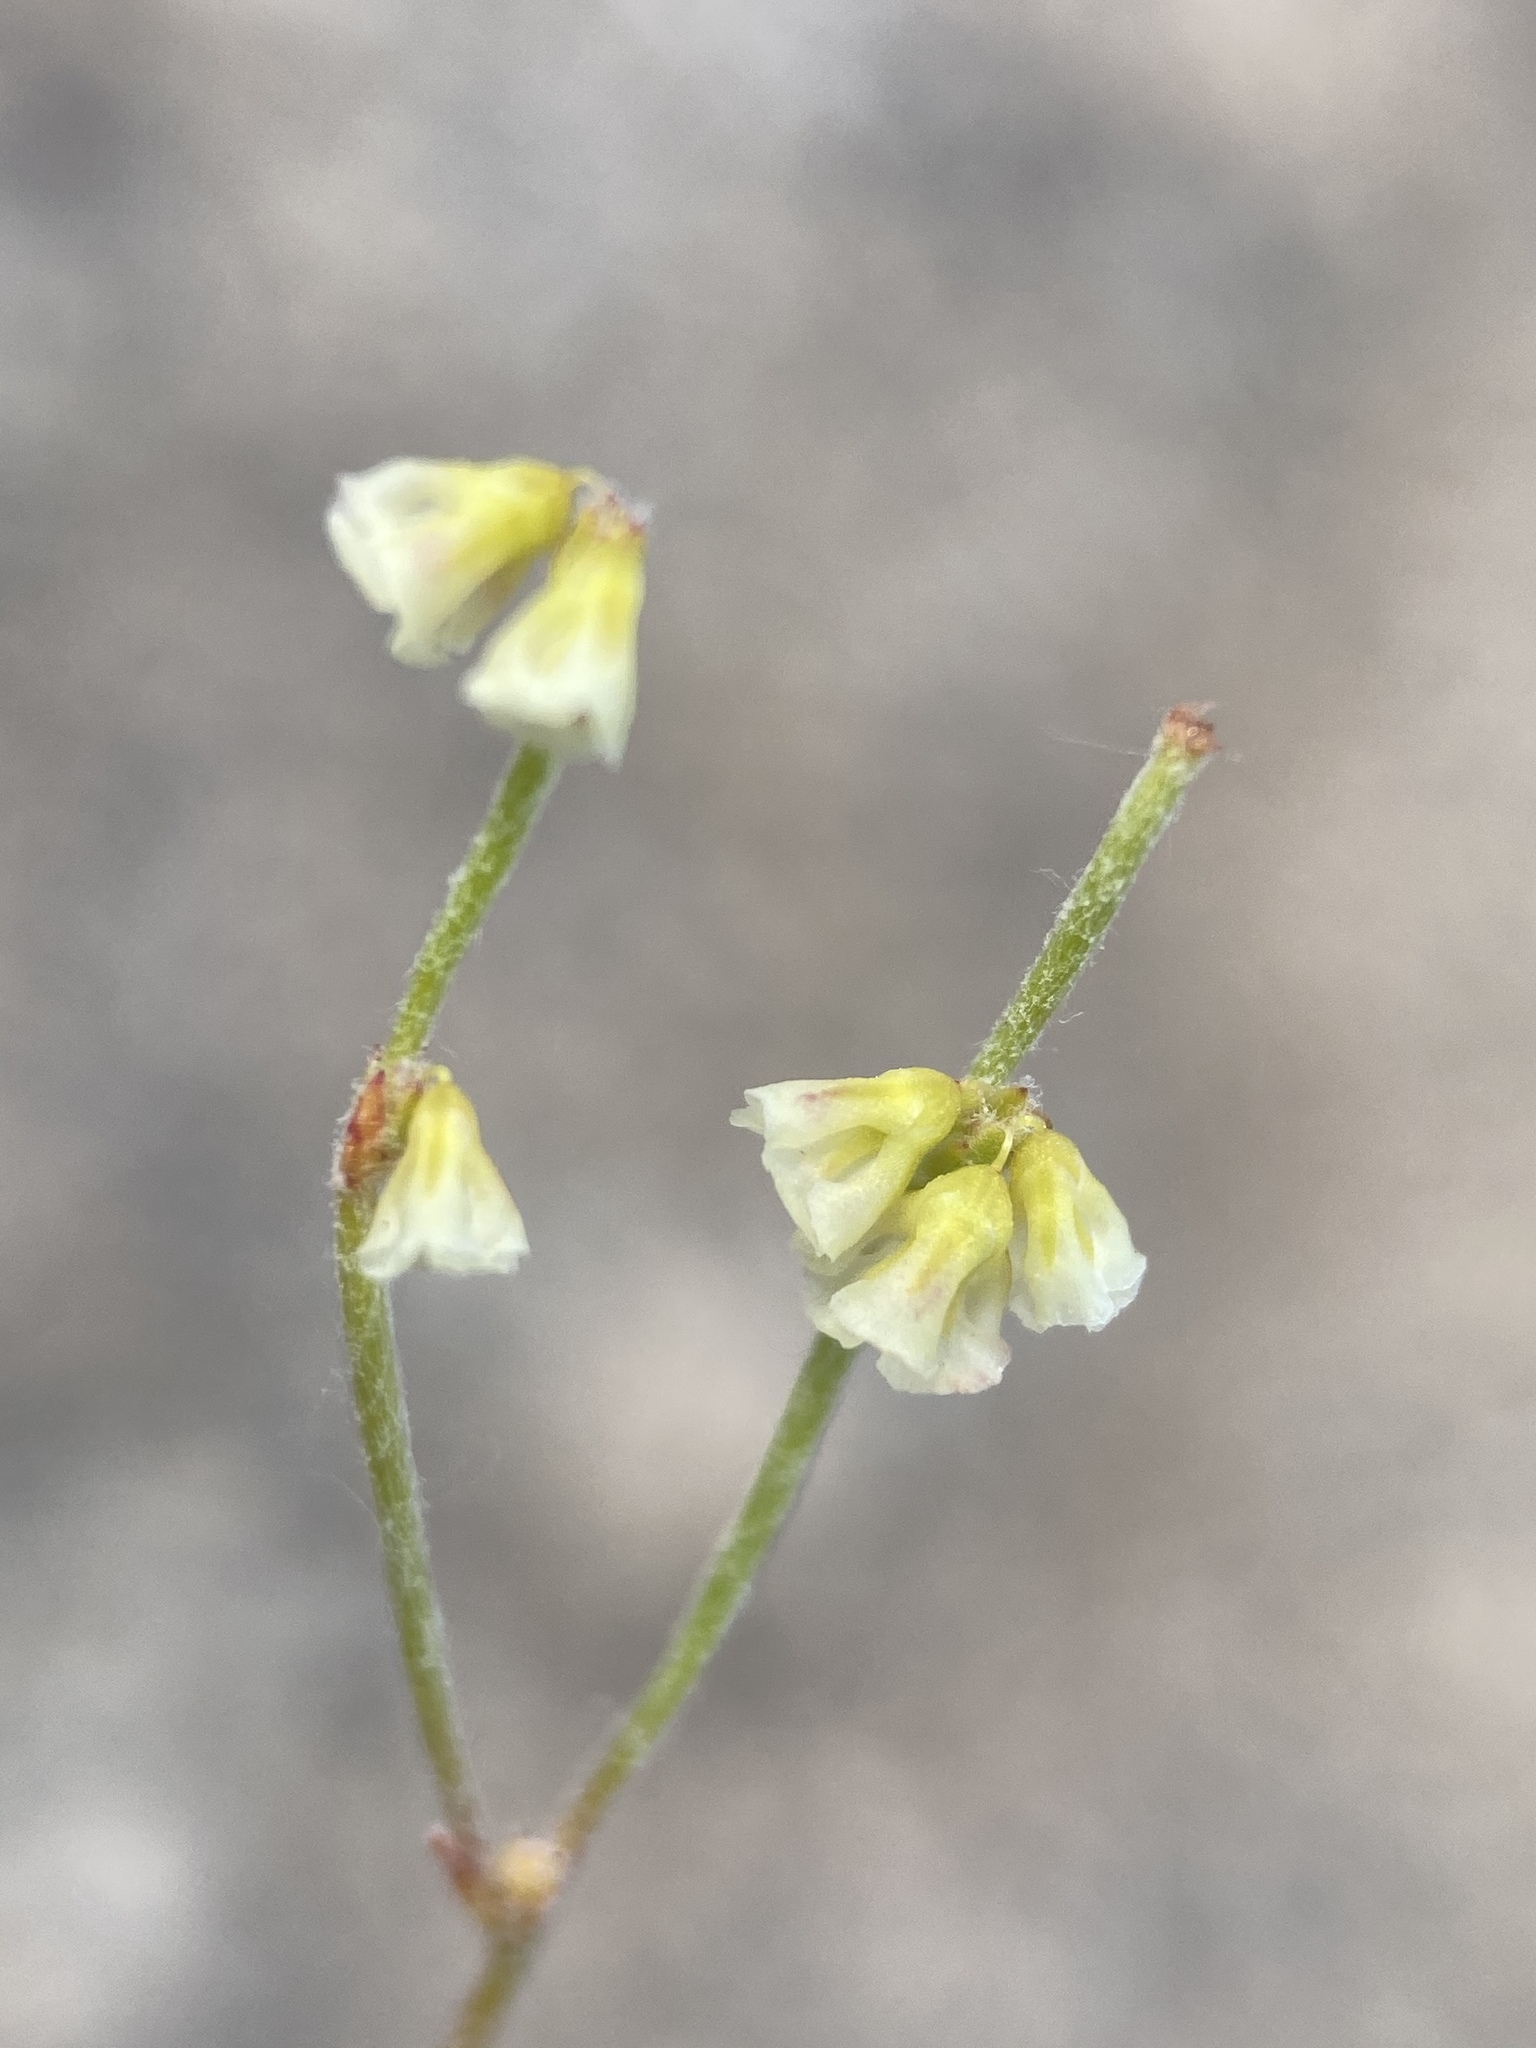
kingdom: Plantae
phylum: Tracheophyta
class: Magnoliopsida
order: Caryophyllales
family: Polygonaceae
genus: Eriogonum
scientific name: Eriogonum nidularium
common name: Bird's-nest wild buckwheat
